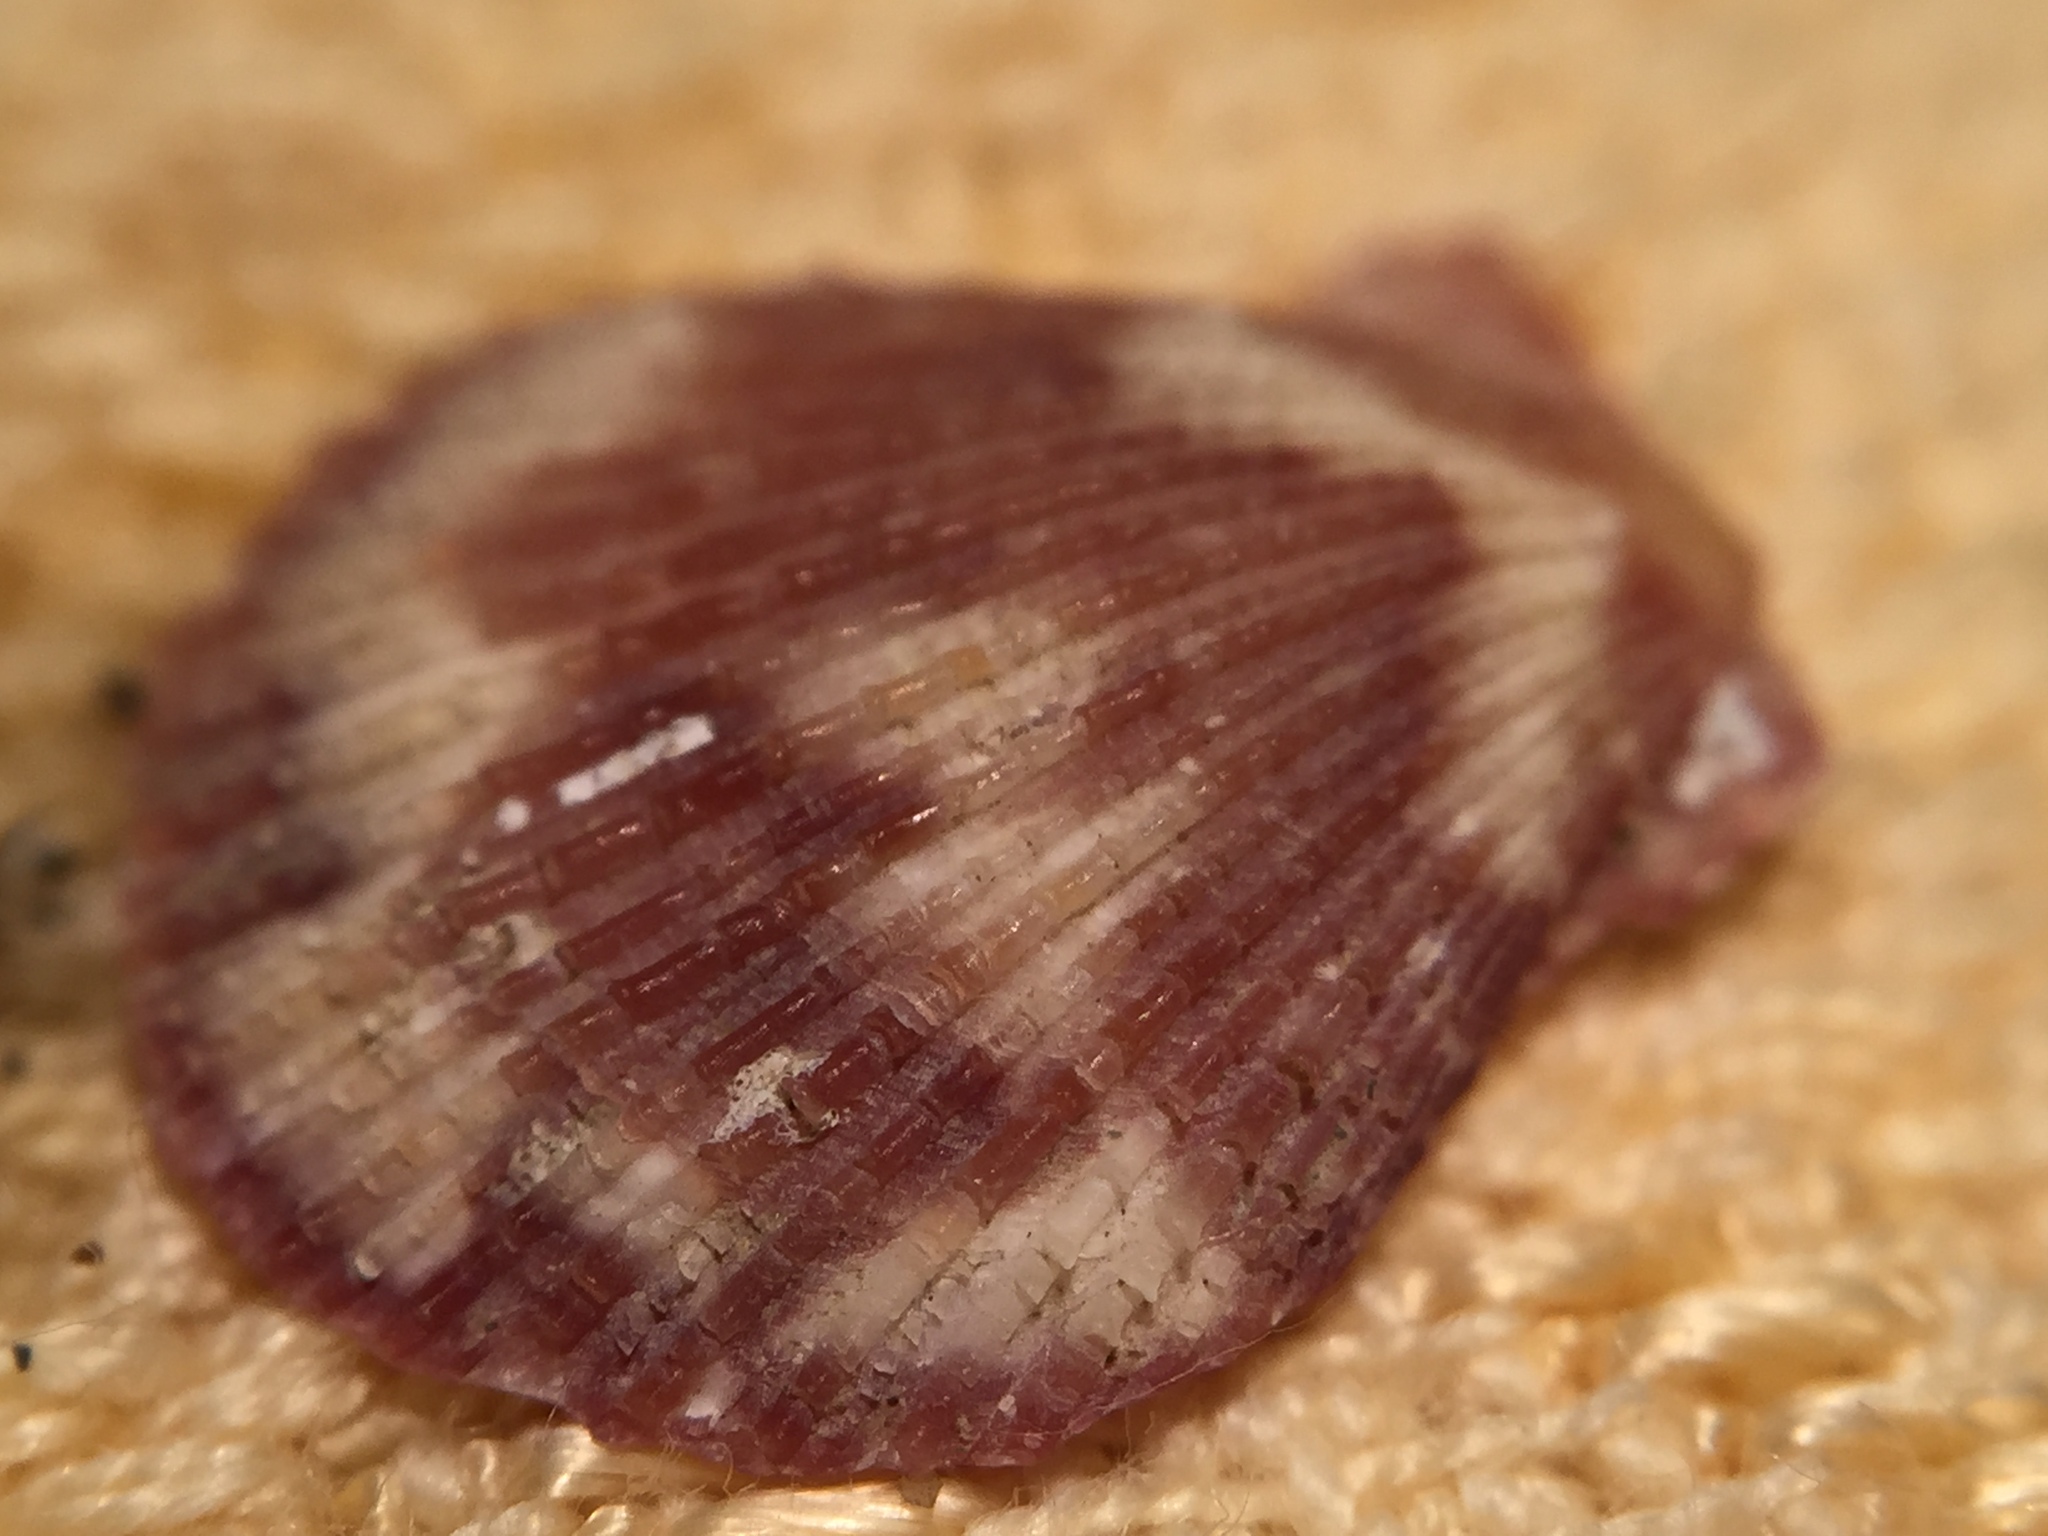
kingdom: Animalia
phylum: Mollusca
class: Bivalvia
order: Pectinida
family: Pectinidae
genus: Talochlamys
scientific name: Talochlamys zelandiae
